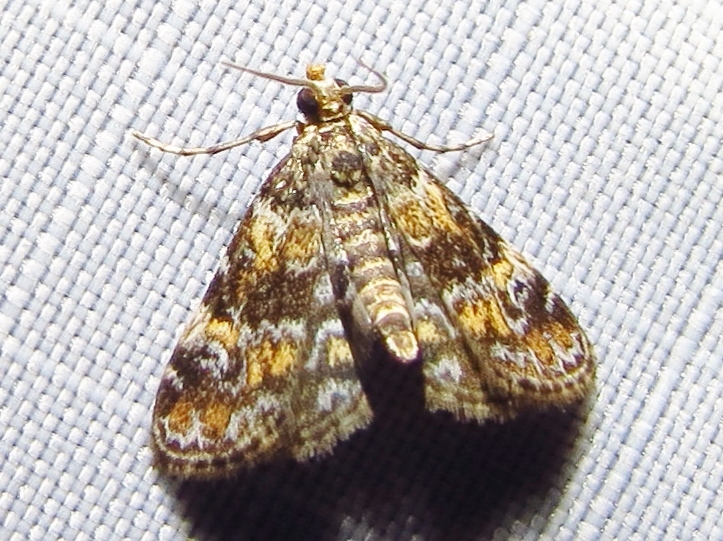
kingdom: Animalia
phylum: Arthropoda
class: Insecta
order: Lepidoptera
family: Crambidae
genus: Elophila
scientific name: Elophila obliteralis
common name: Waterlily leafcutter moth
